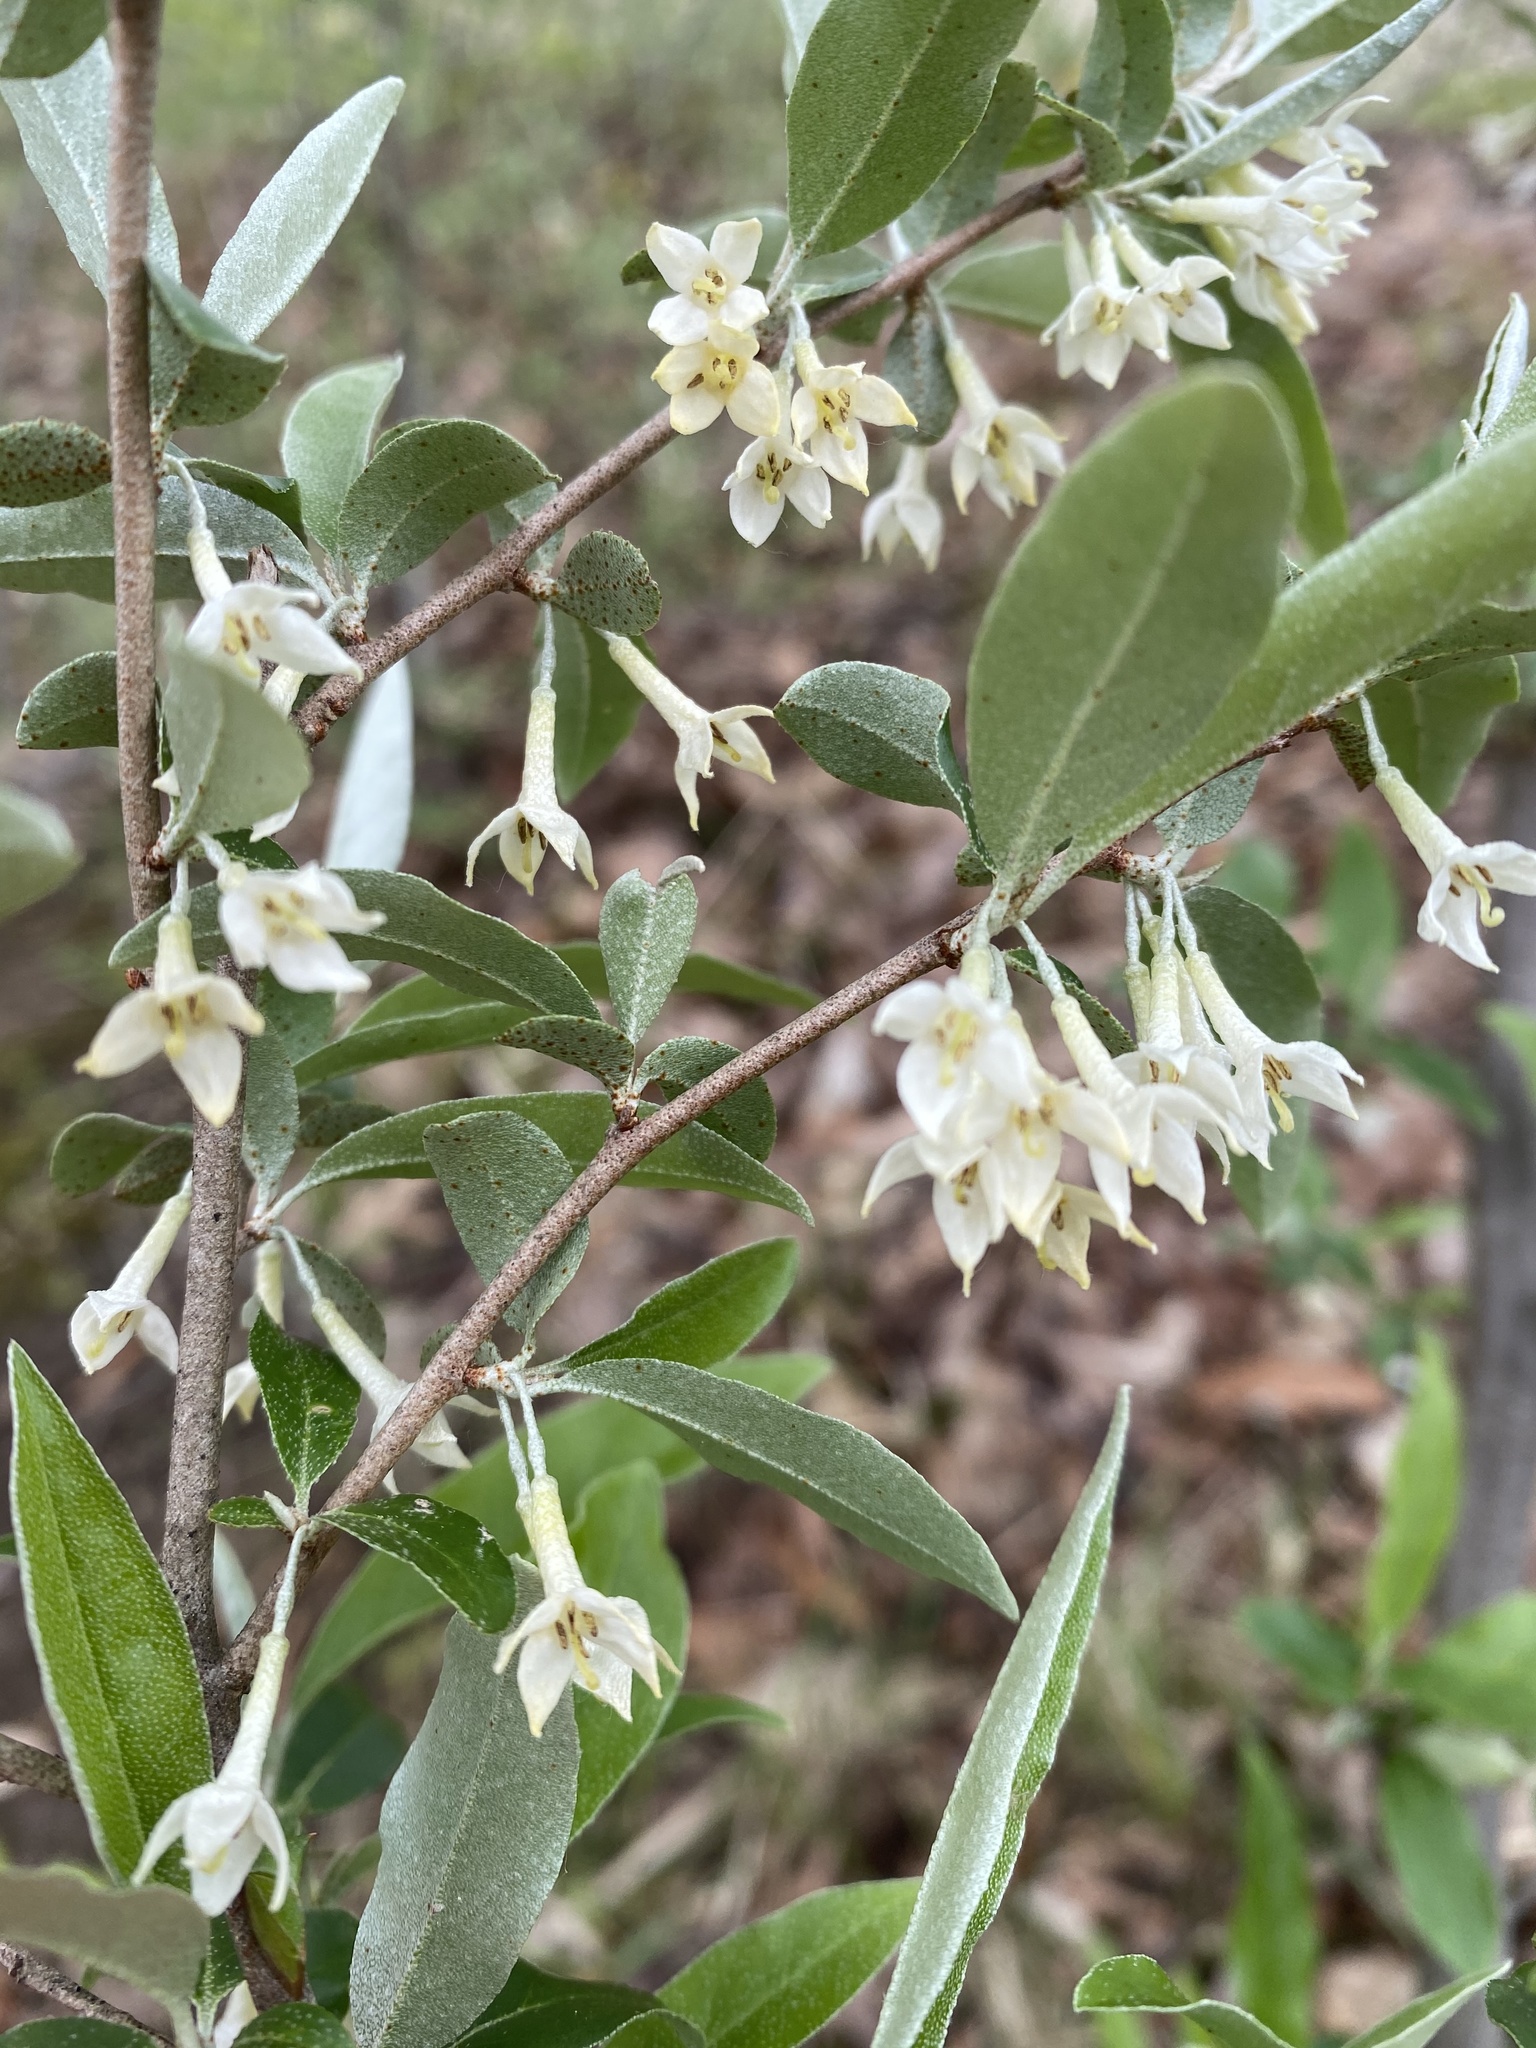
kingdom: Plantae
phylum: Tracheophyta
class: Magnoliopsida
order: Rosales
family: Elaeagnaceae
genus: Elaeagnus
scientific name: Elaeagnus umbellata
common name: Autumn olive
